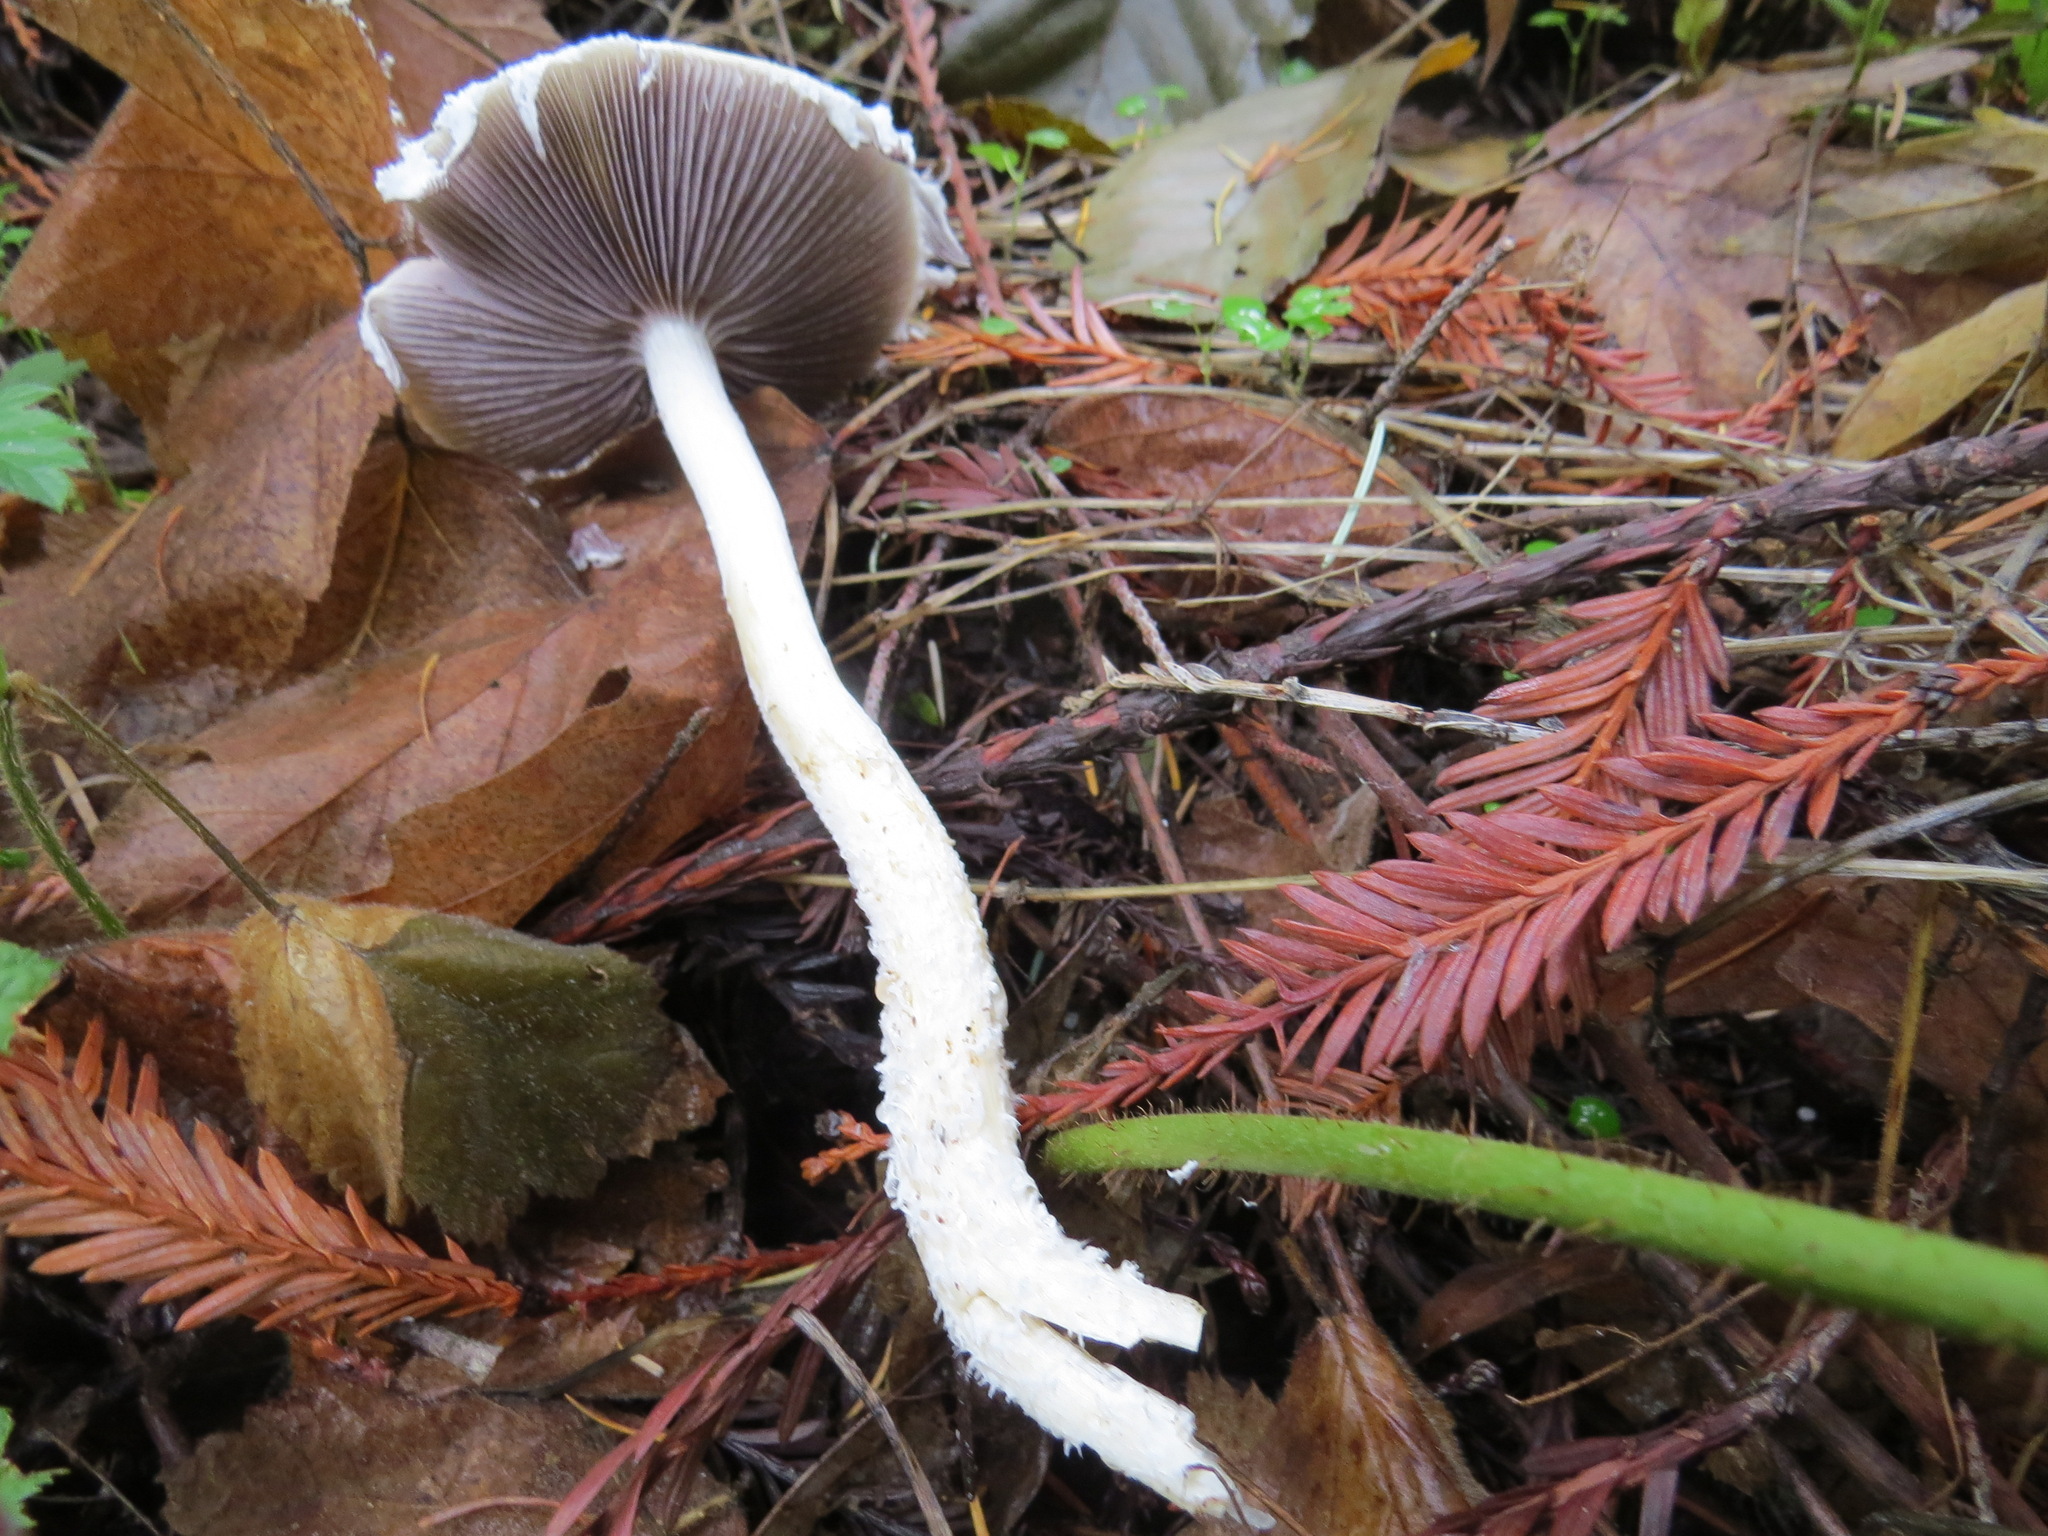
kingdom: Fungi
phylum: Basidiomycota
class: Agaricomycetes
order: Agaricales
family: Strophariaceae
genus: Stropharia
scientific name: Stropharia ambigua
